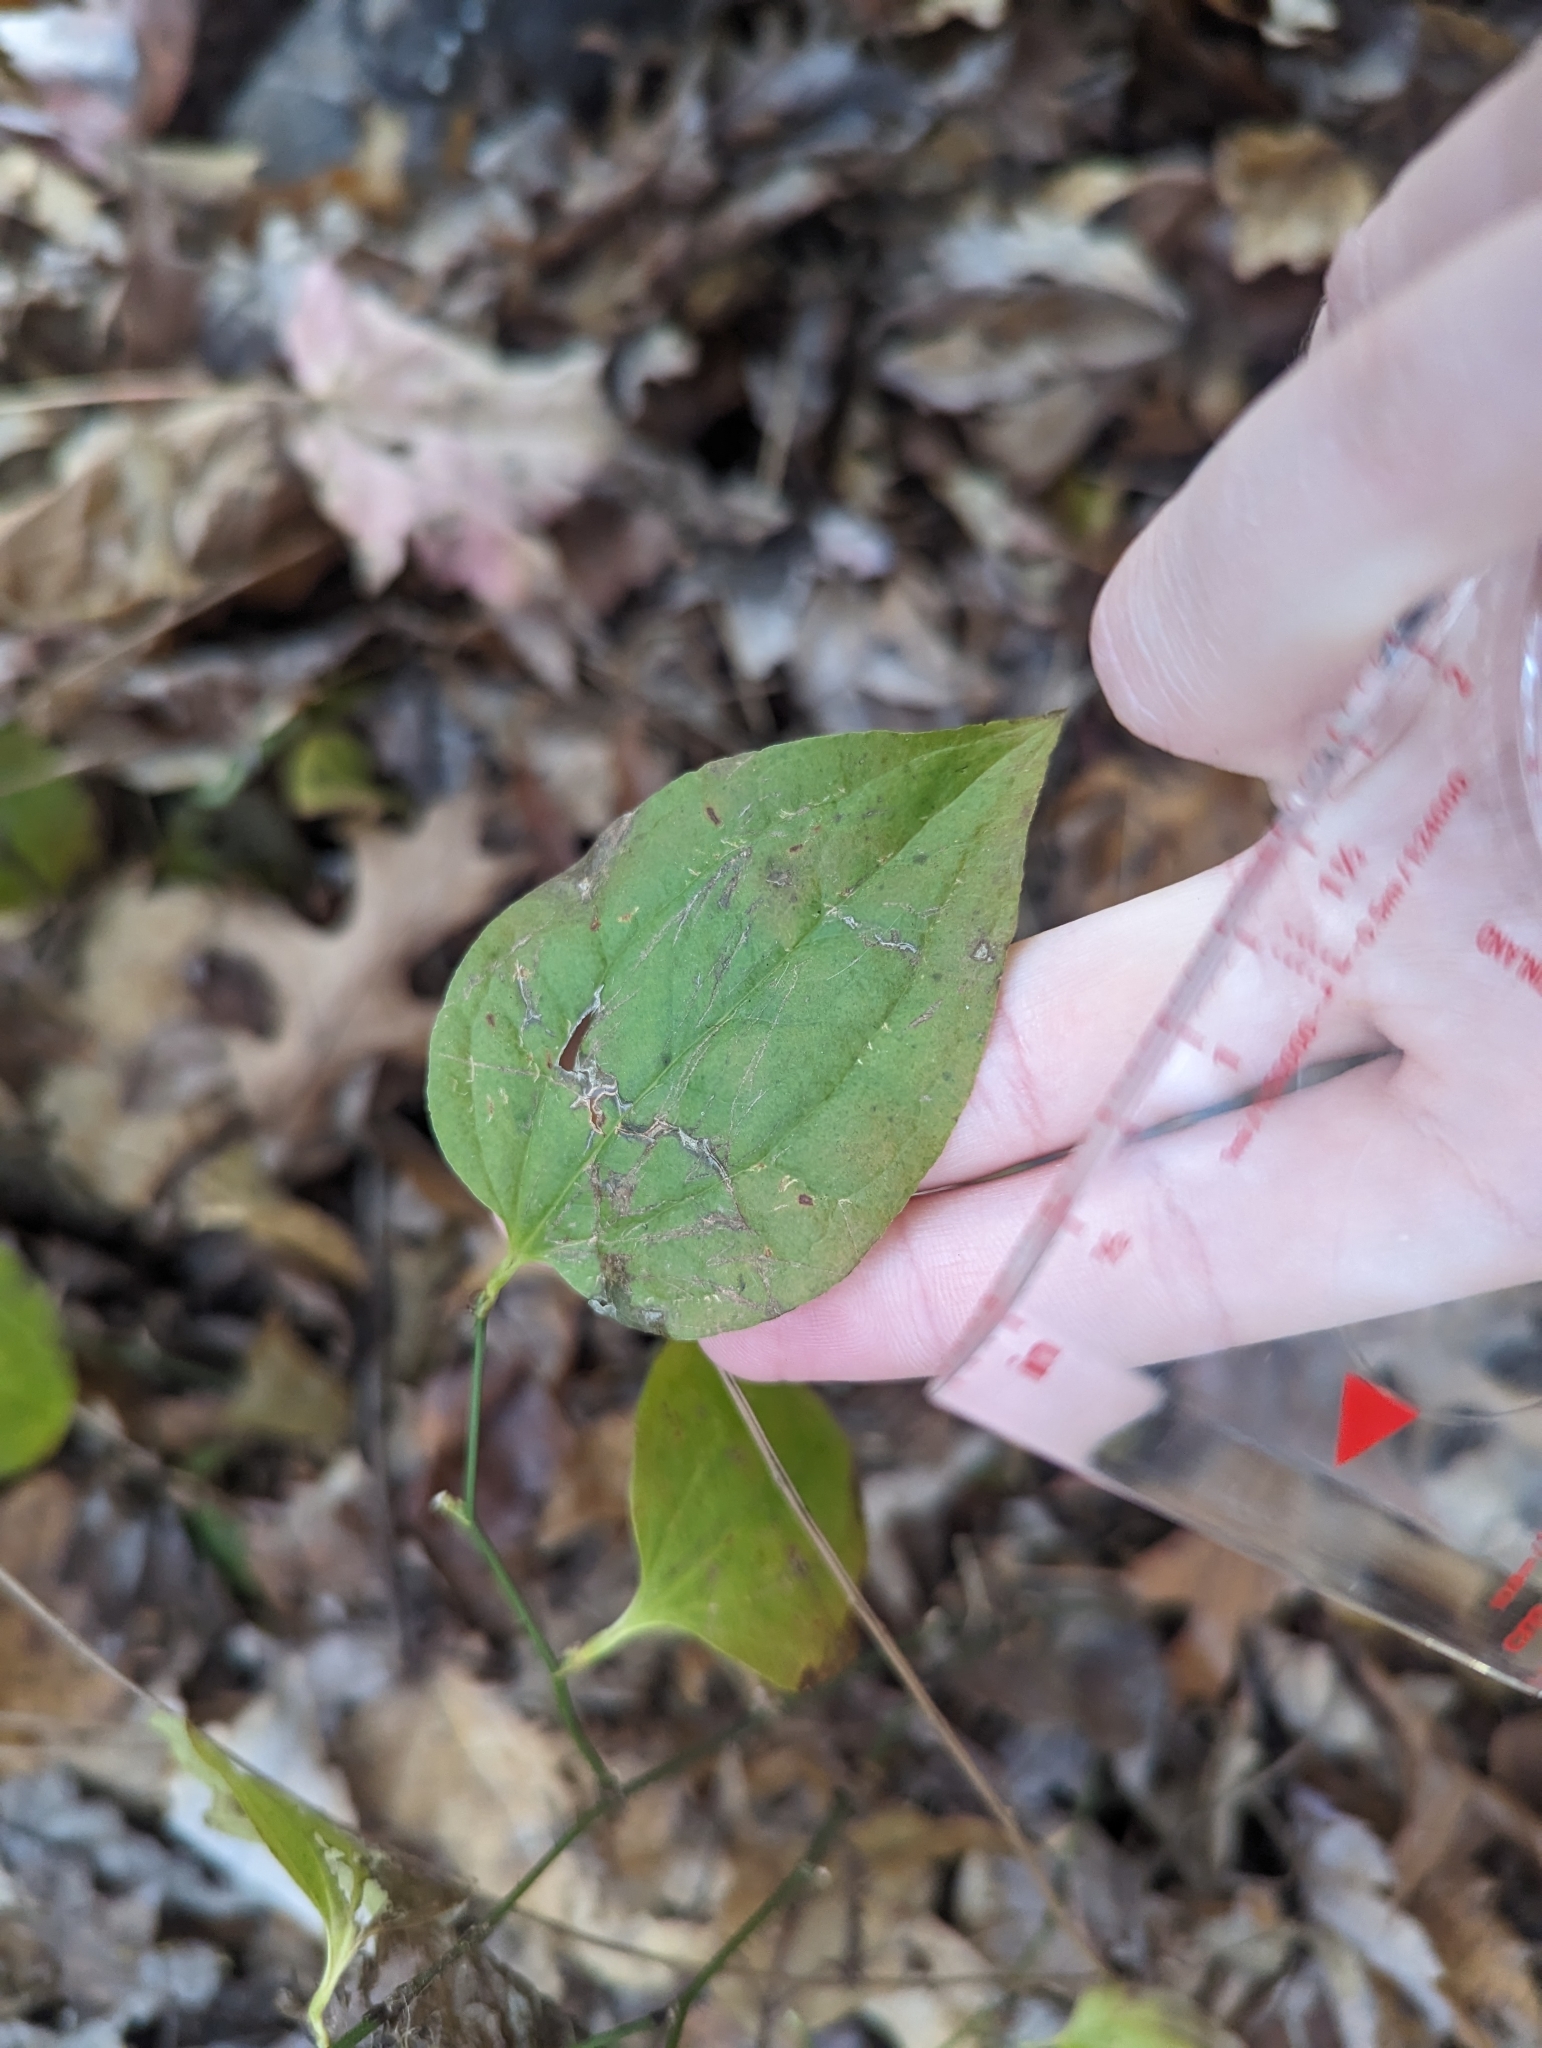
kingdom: Plantae
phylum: Tracheophyta
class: Liliopsida
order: Liliales
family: Smilacaceae
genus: Smilax
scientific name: Smilax tamnoides
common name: Hellfetter
